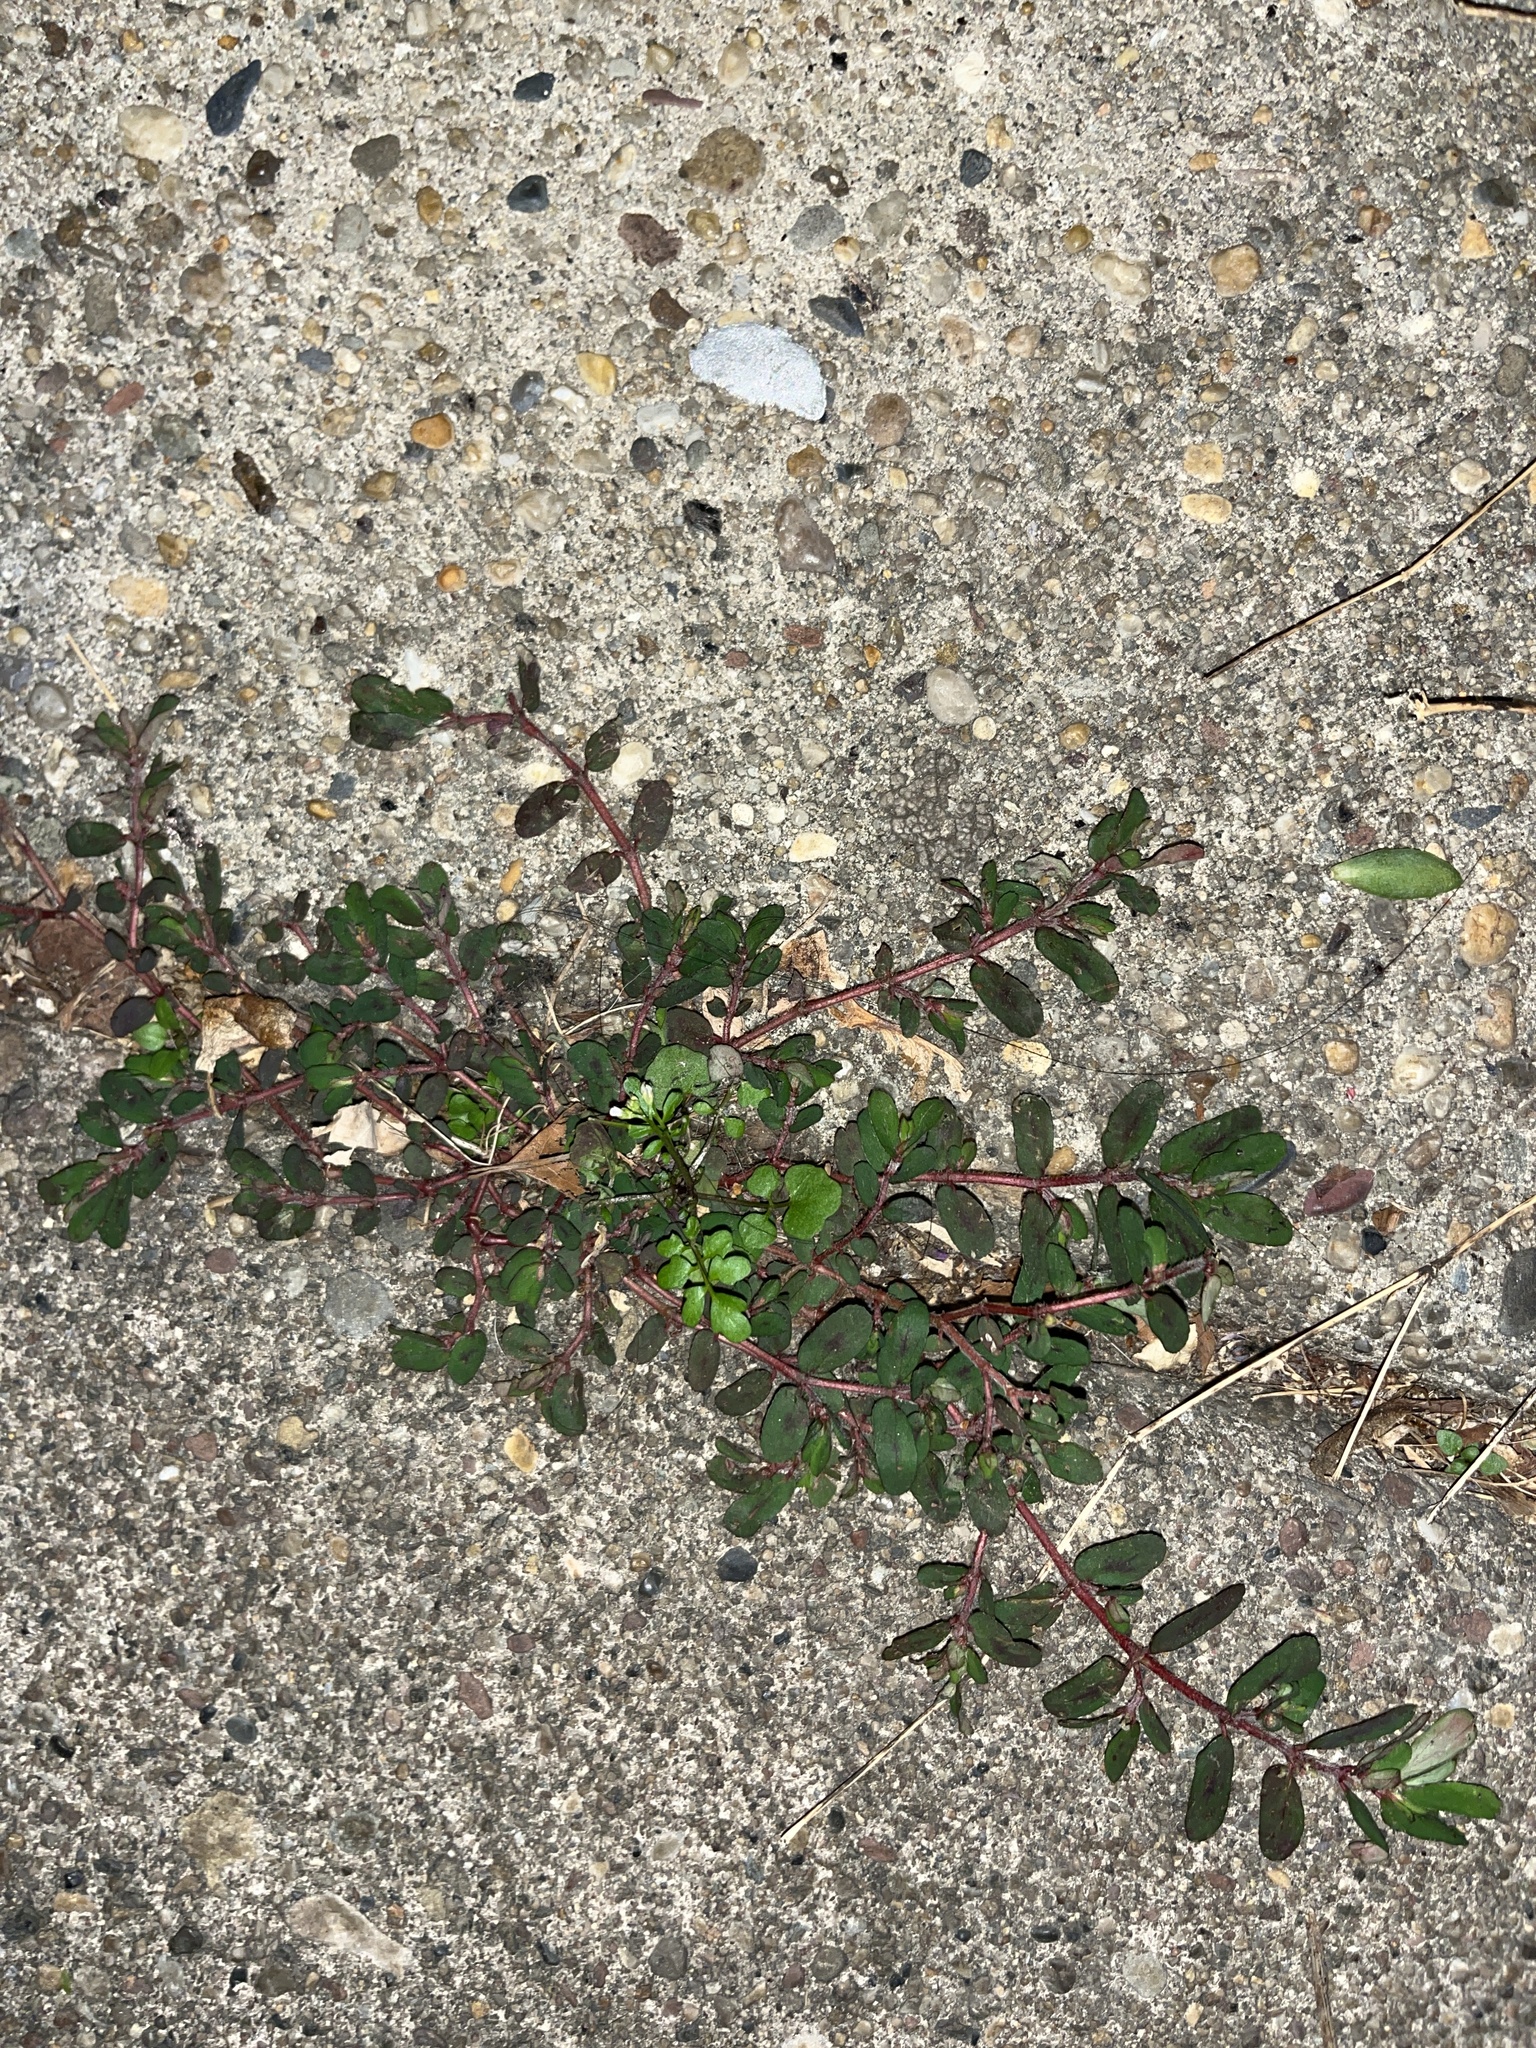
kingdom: Plantae
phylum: Tracheophyta
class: Magnoliopsida
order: Malpighiales
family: Euphorbiaceae
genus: Euphorbia
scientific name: Euphorbia maculata
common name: Spotted spurge
